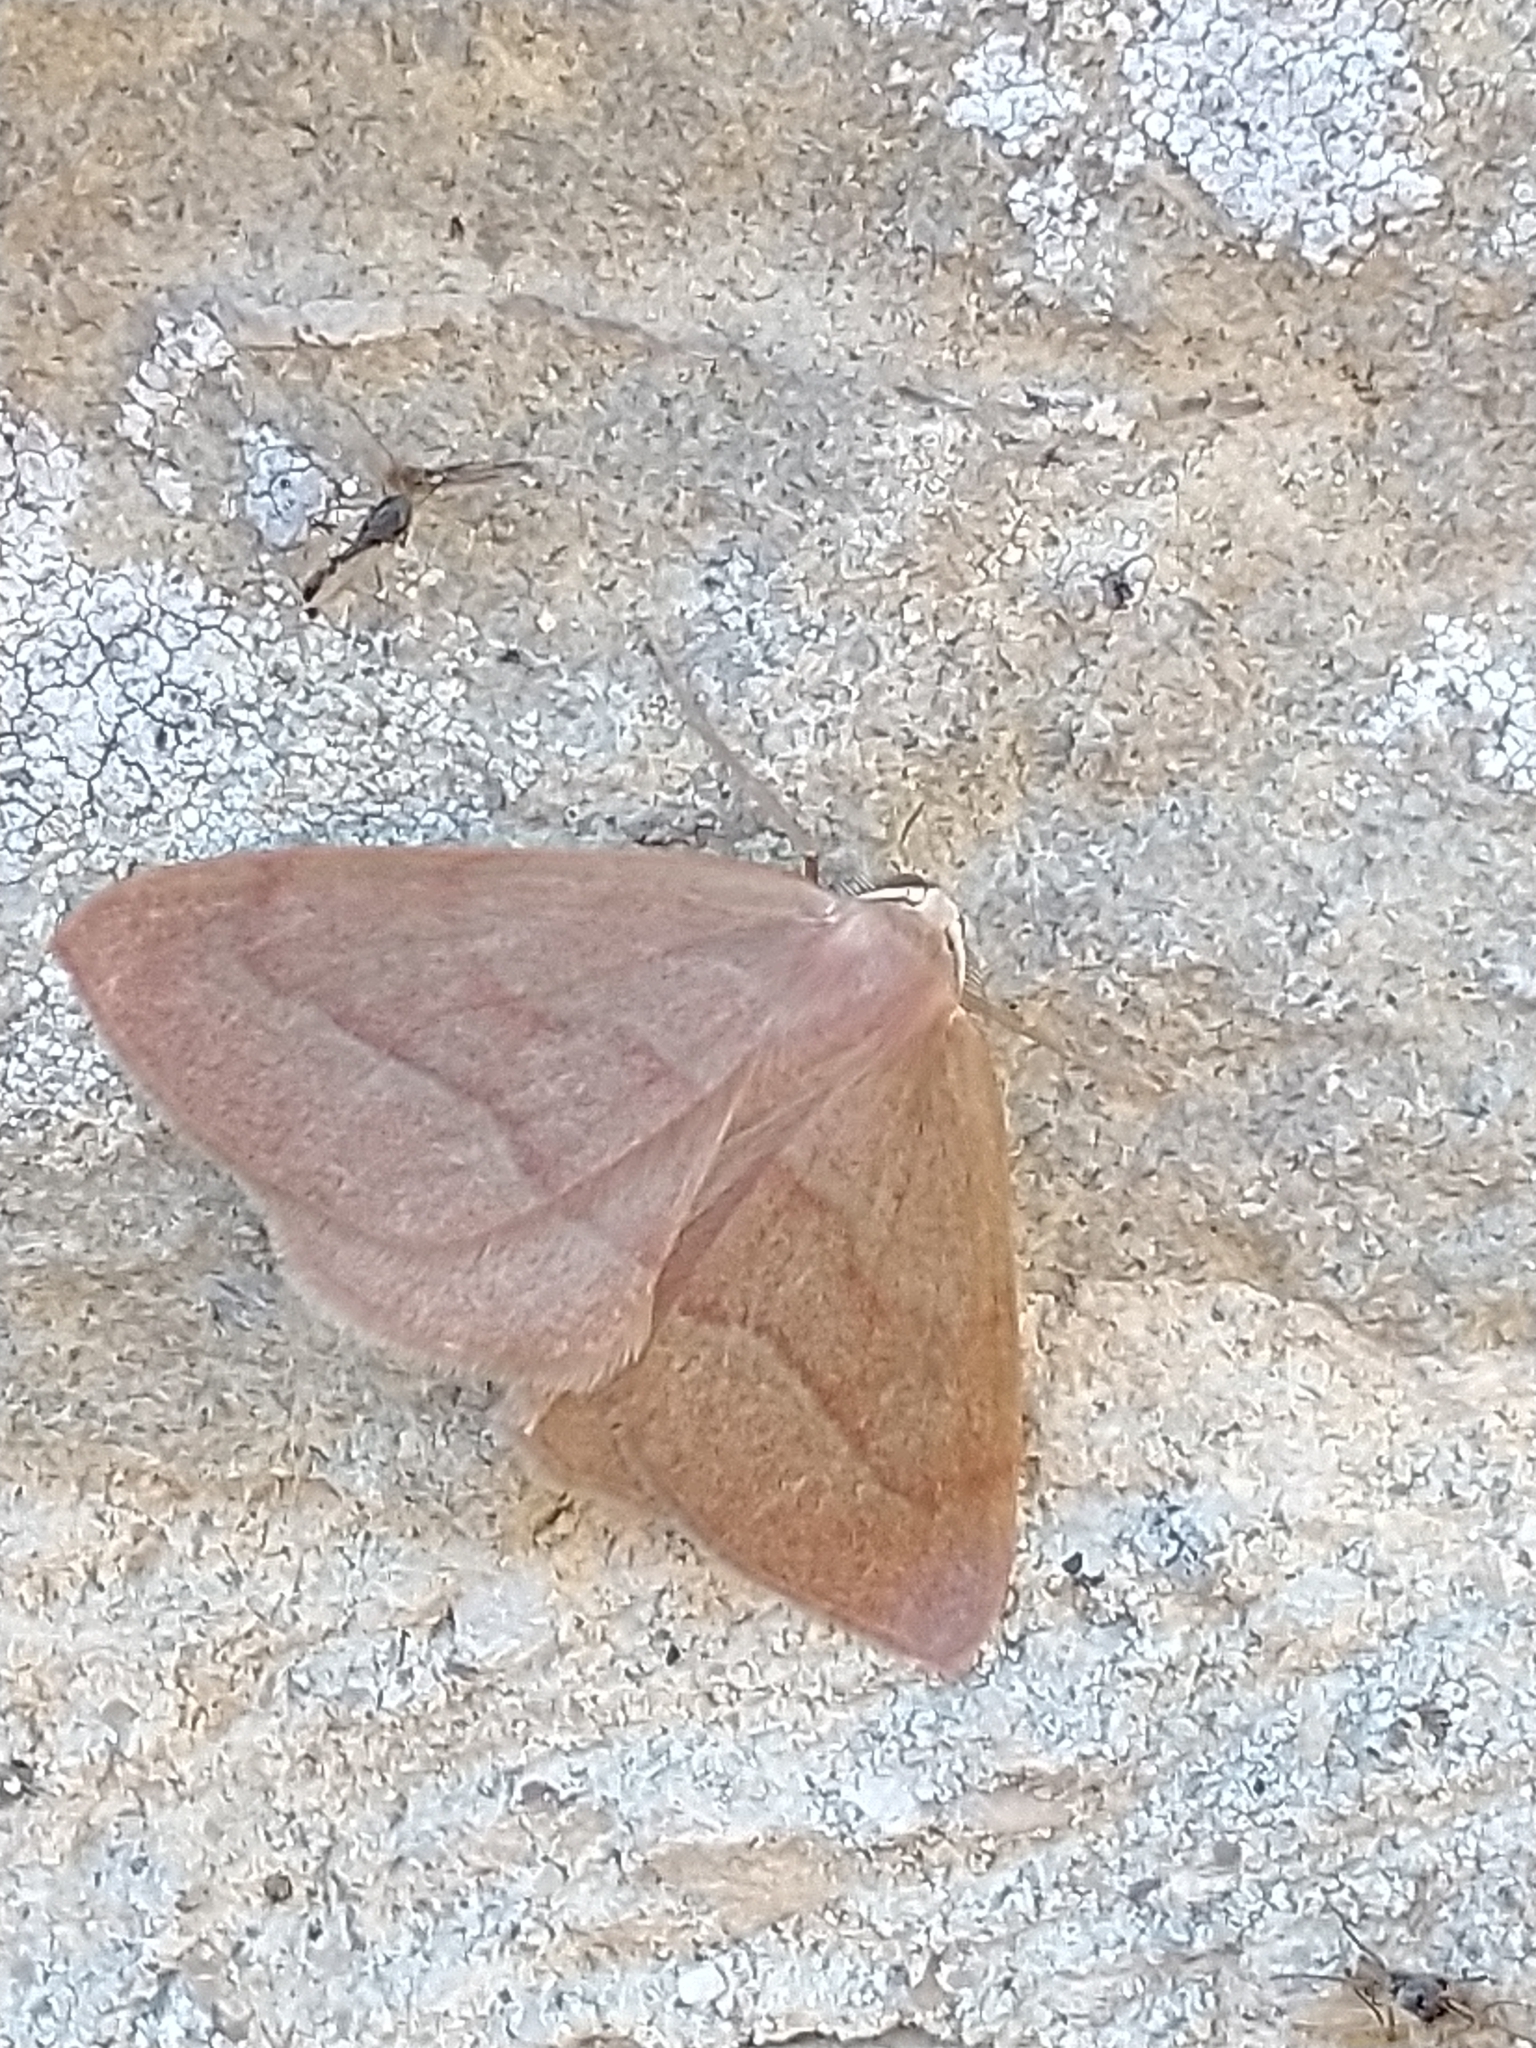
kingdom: Animalia
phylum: Arthropoda
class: Insecta
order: Lepidoptera
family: Geometridae
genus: Hylaea
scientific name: Hylaea fasciaria
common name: Barred red
